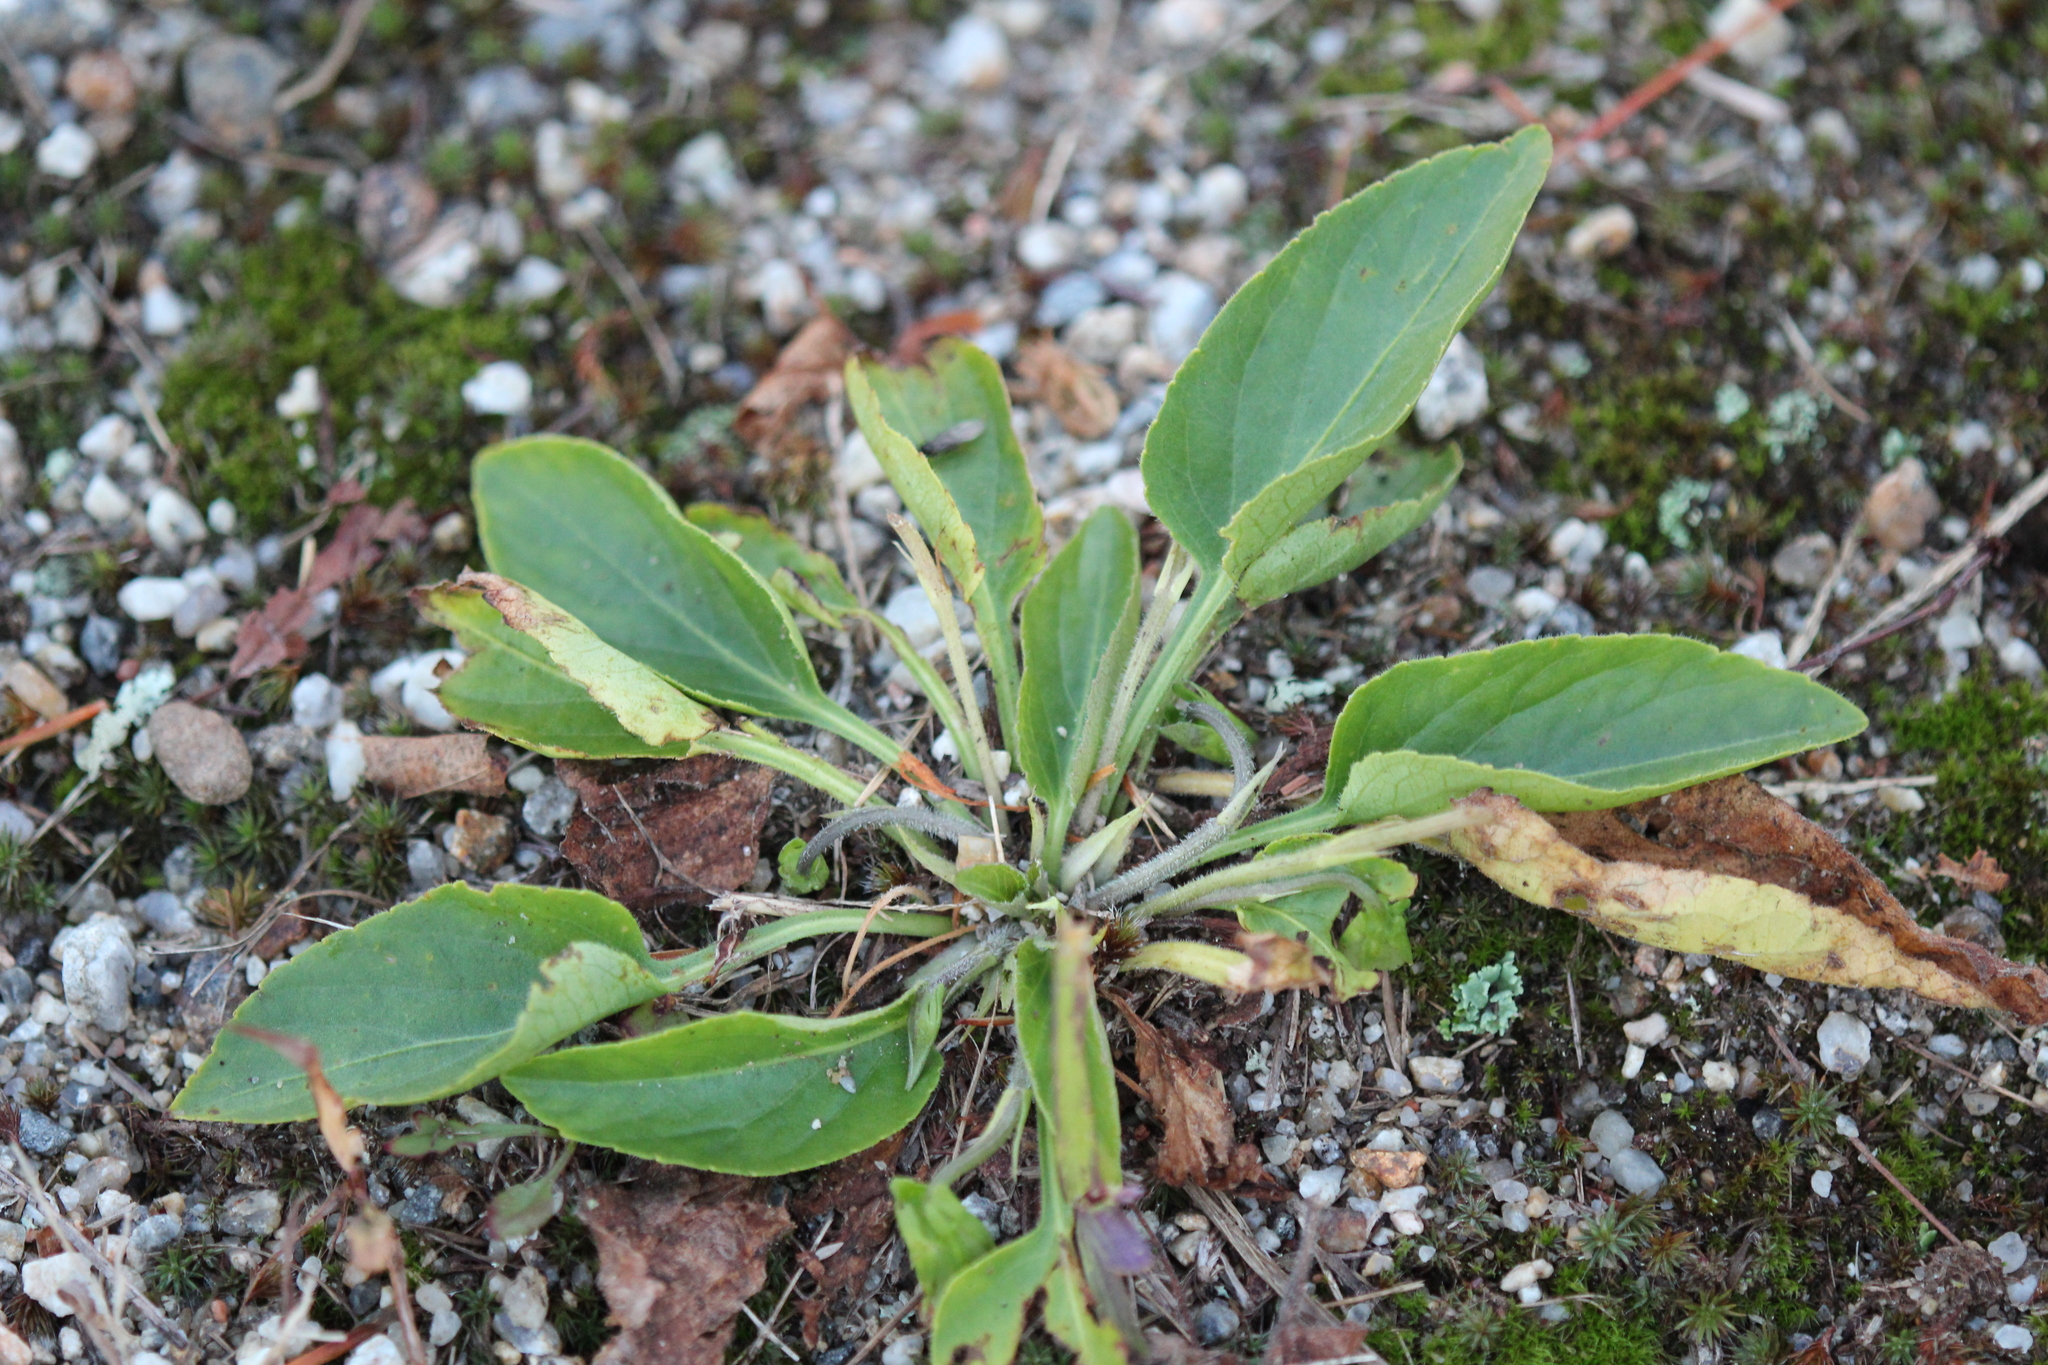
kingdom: Plantae
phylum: Tracheophyta
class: Magnoliopsida
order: Malpighiales
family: Violaceae
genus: Viola
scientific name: Viola fimbriatula
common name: Sand violet
